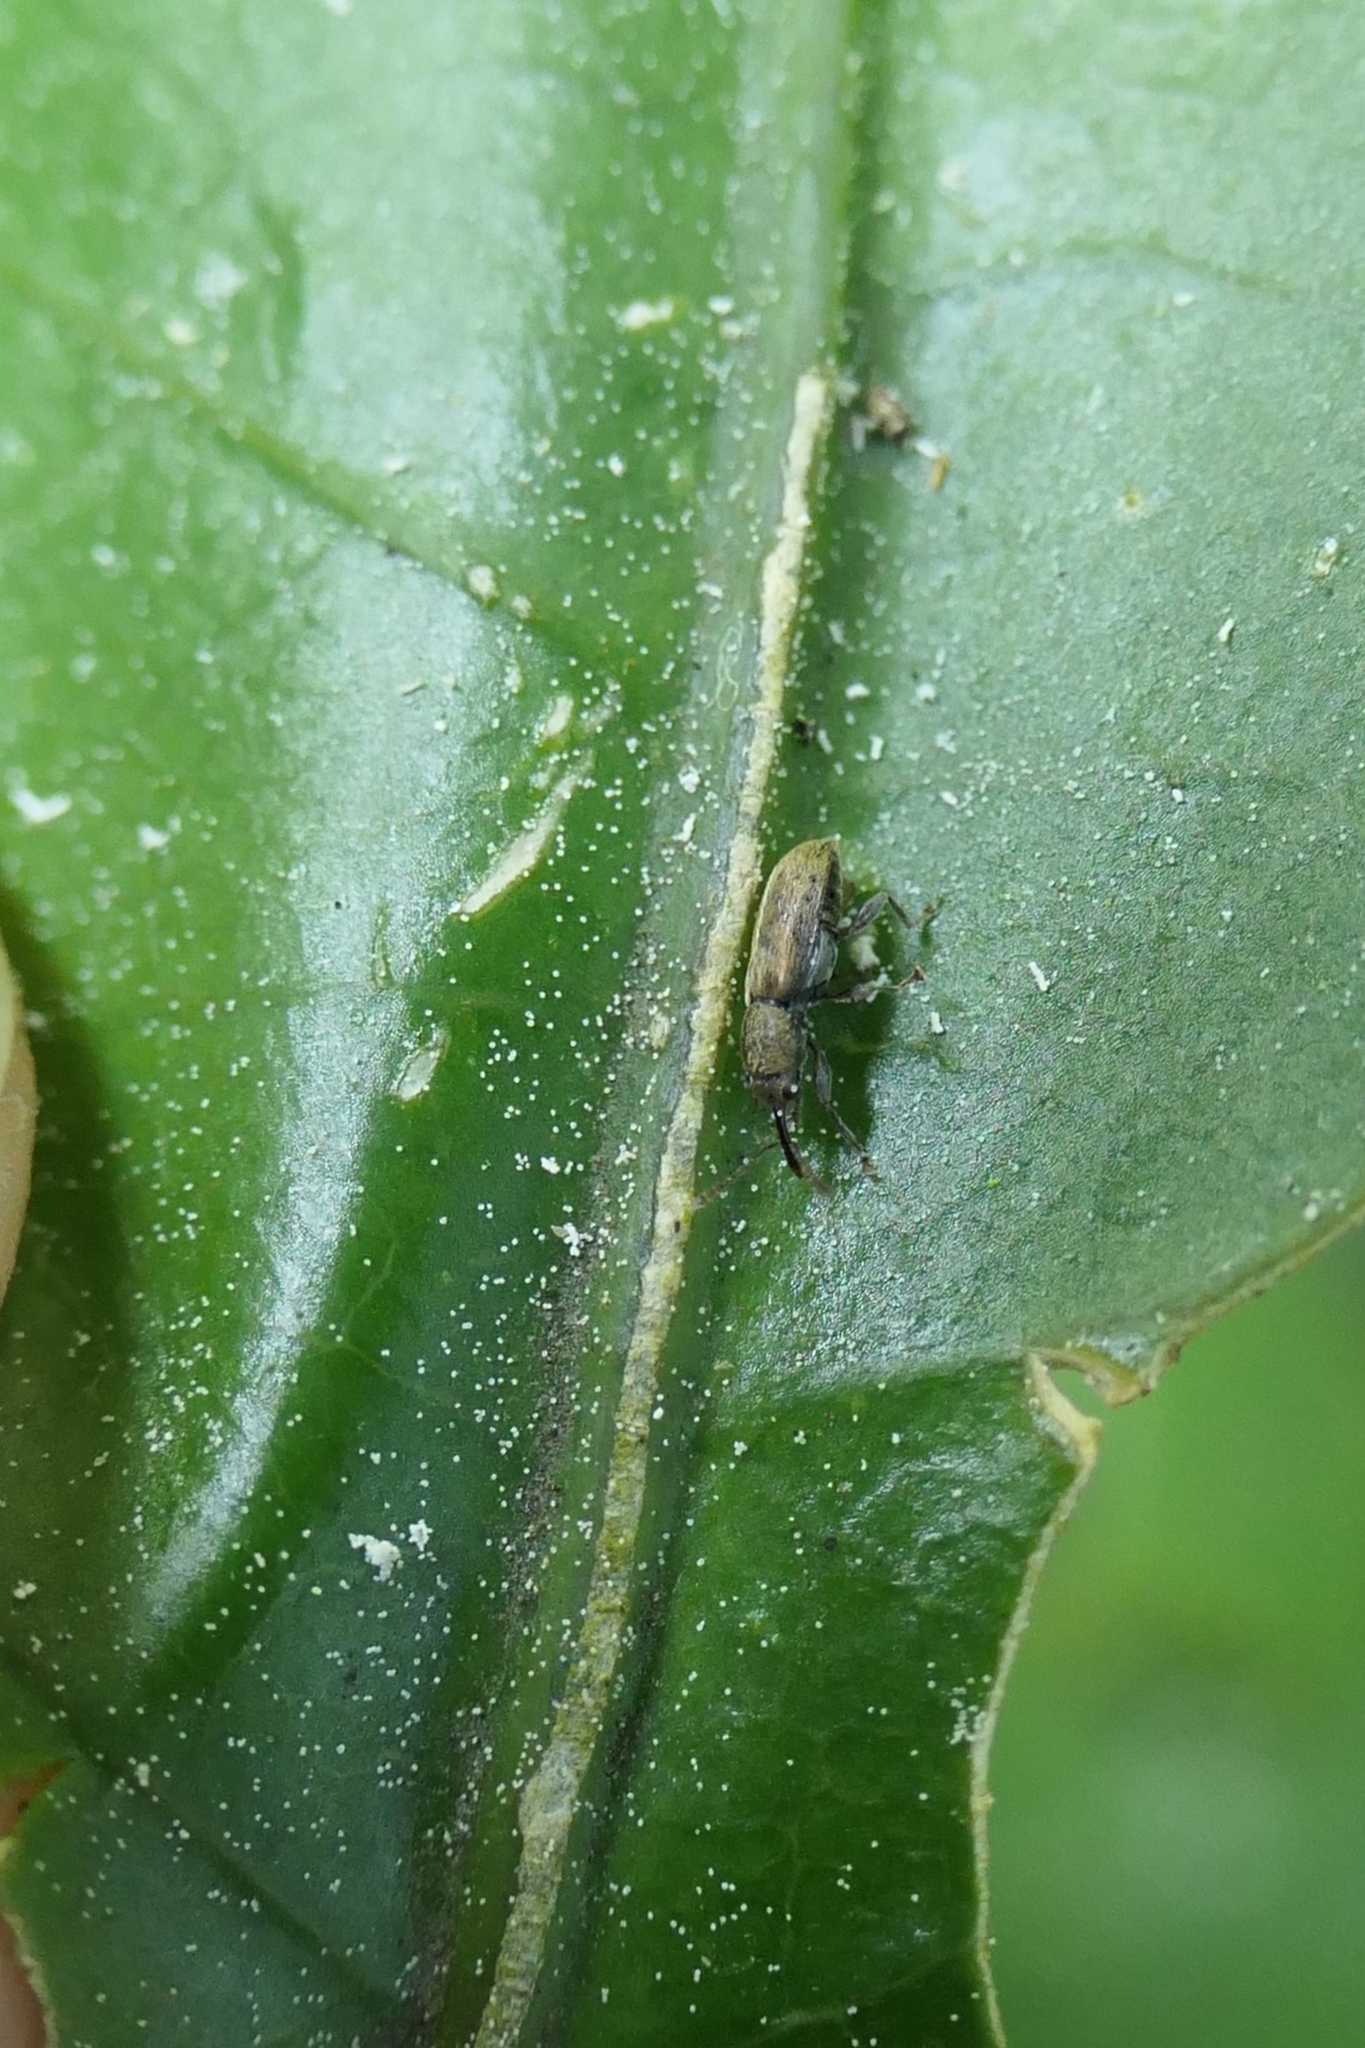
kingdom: Animalia
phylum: Arthropoda
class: Insecta
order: Coleoptera
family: Nemonychidae
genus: Rhinorhynchus
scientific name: Rhinorhynchus rufulus
